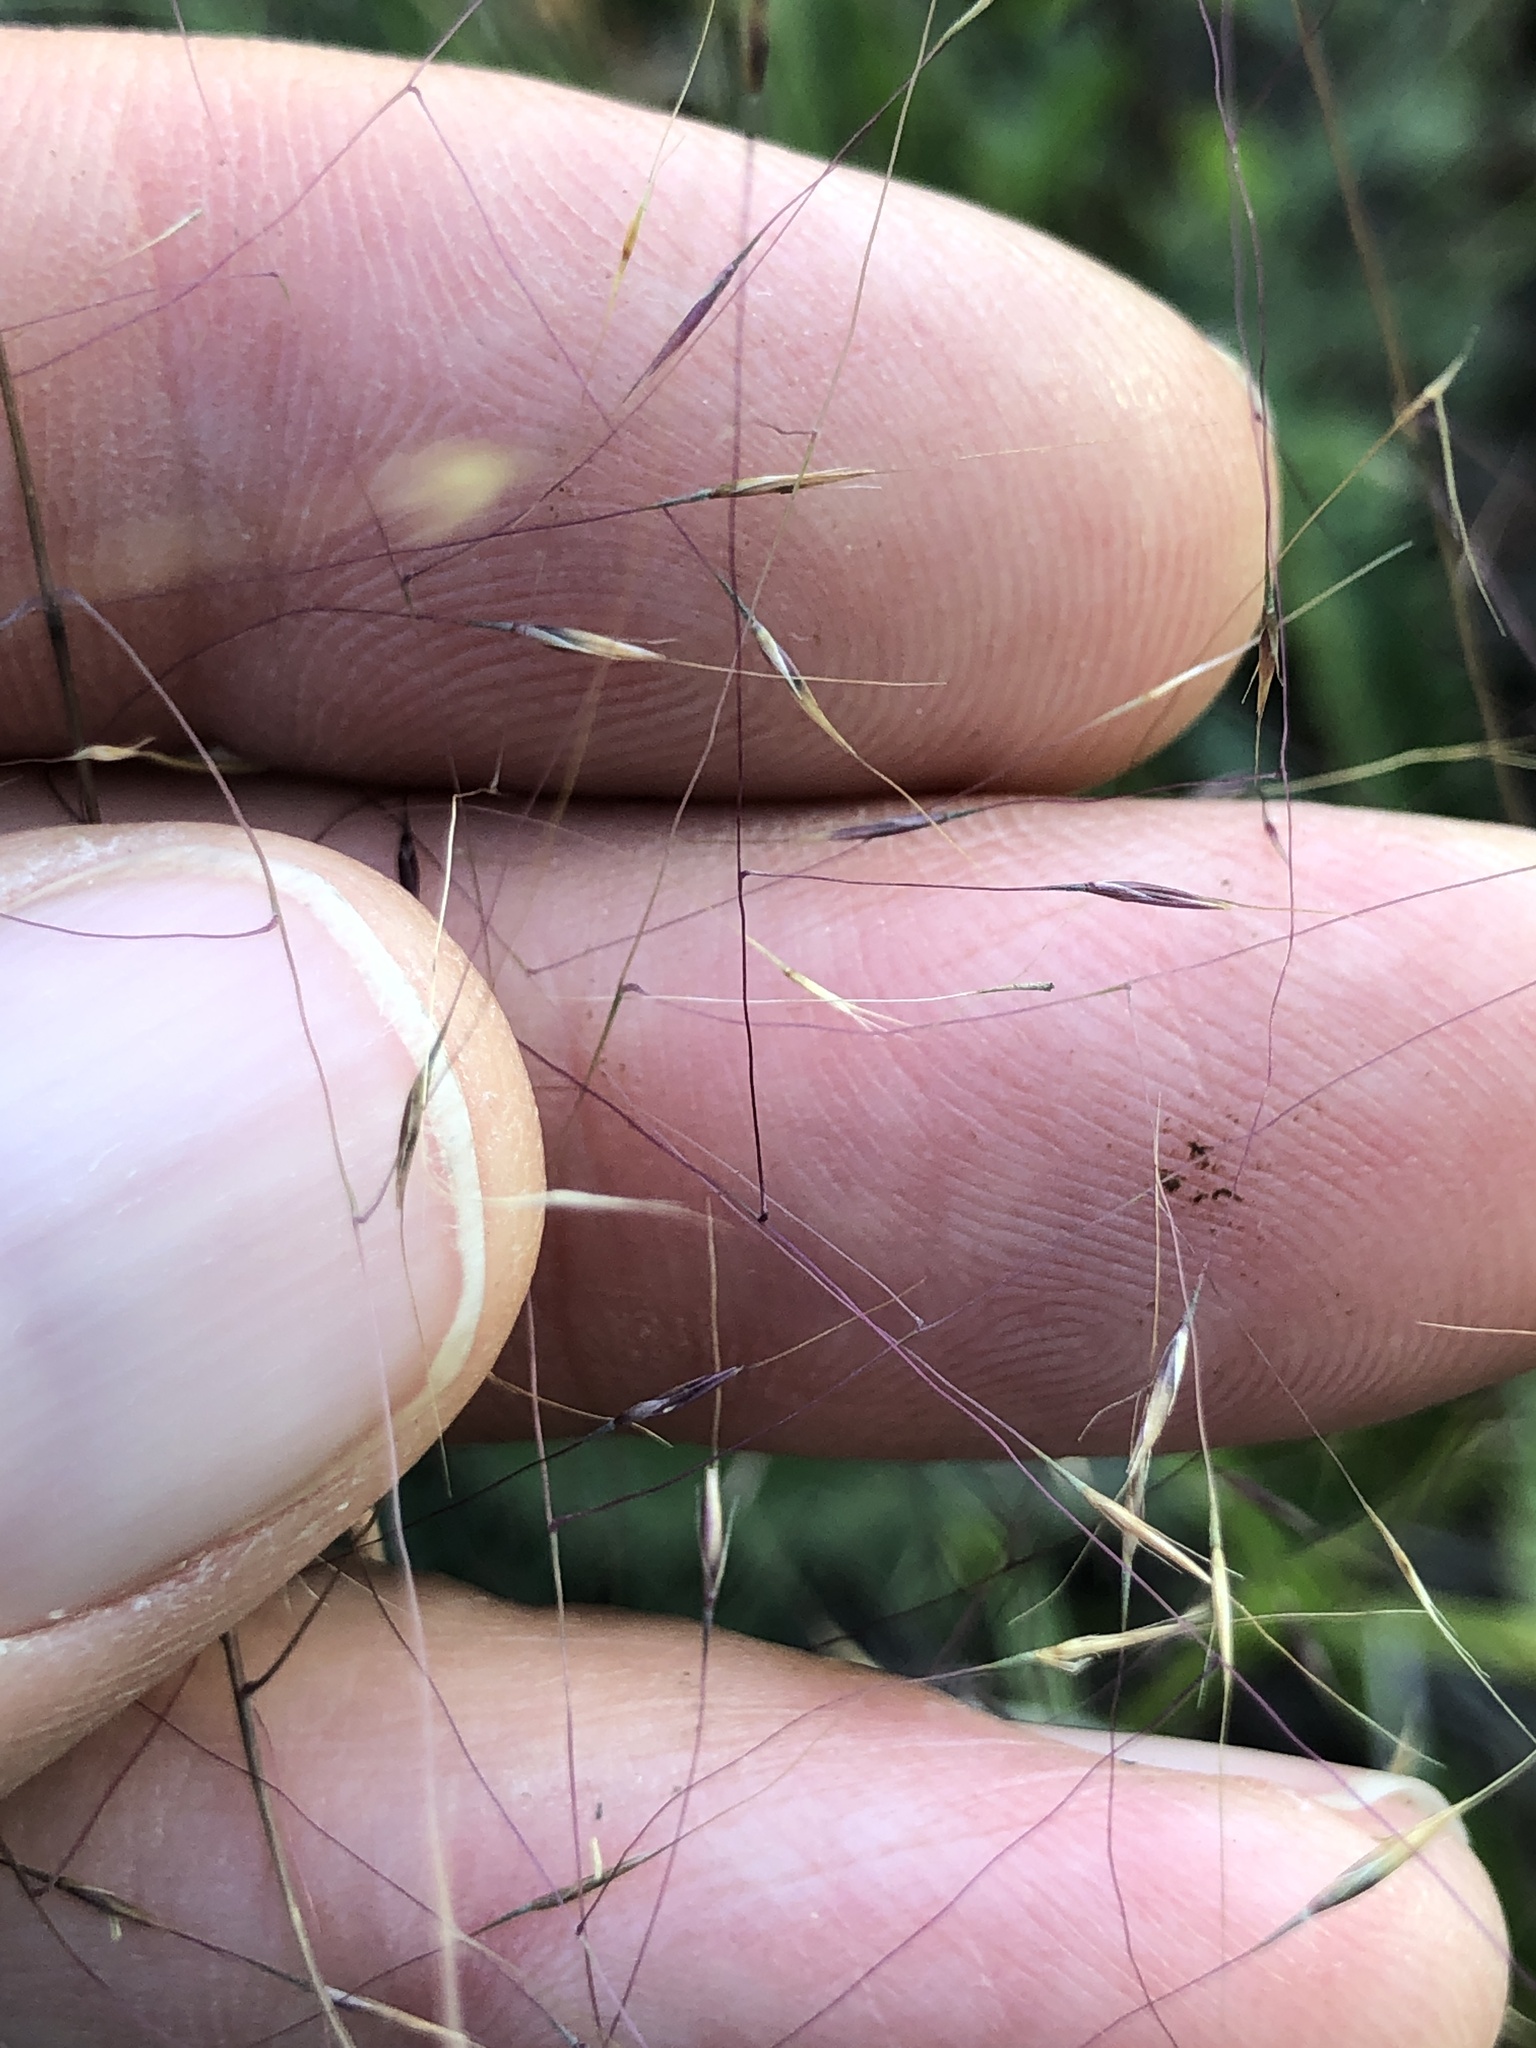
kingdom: Plantae
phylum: Tracheophyta
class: Liliopsida
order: Poales
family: Poaceae
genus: Muhlenbergia
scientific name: Muhlenbergia capillaris
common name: Purple grass
